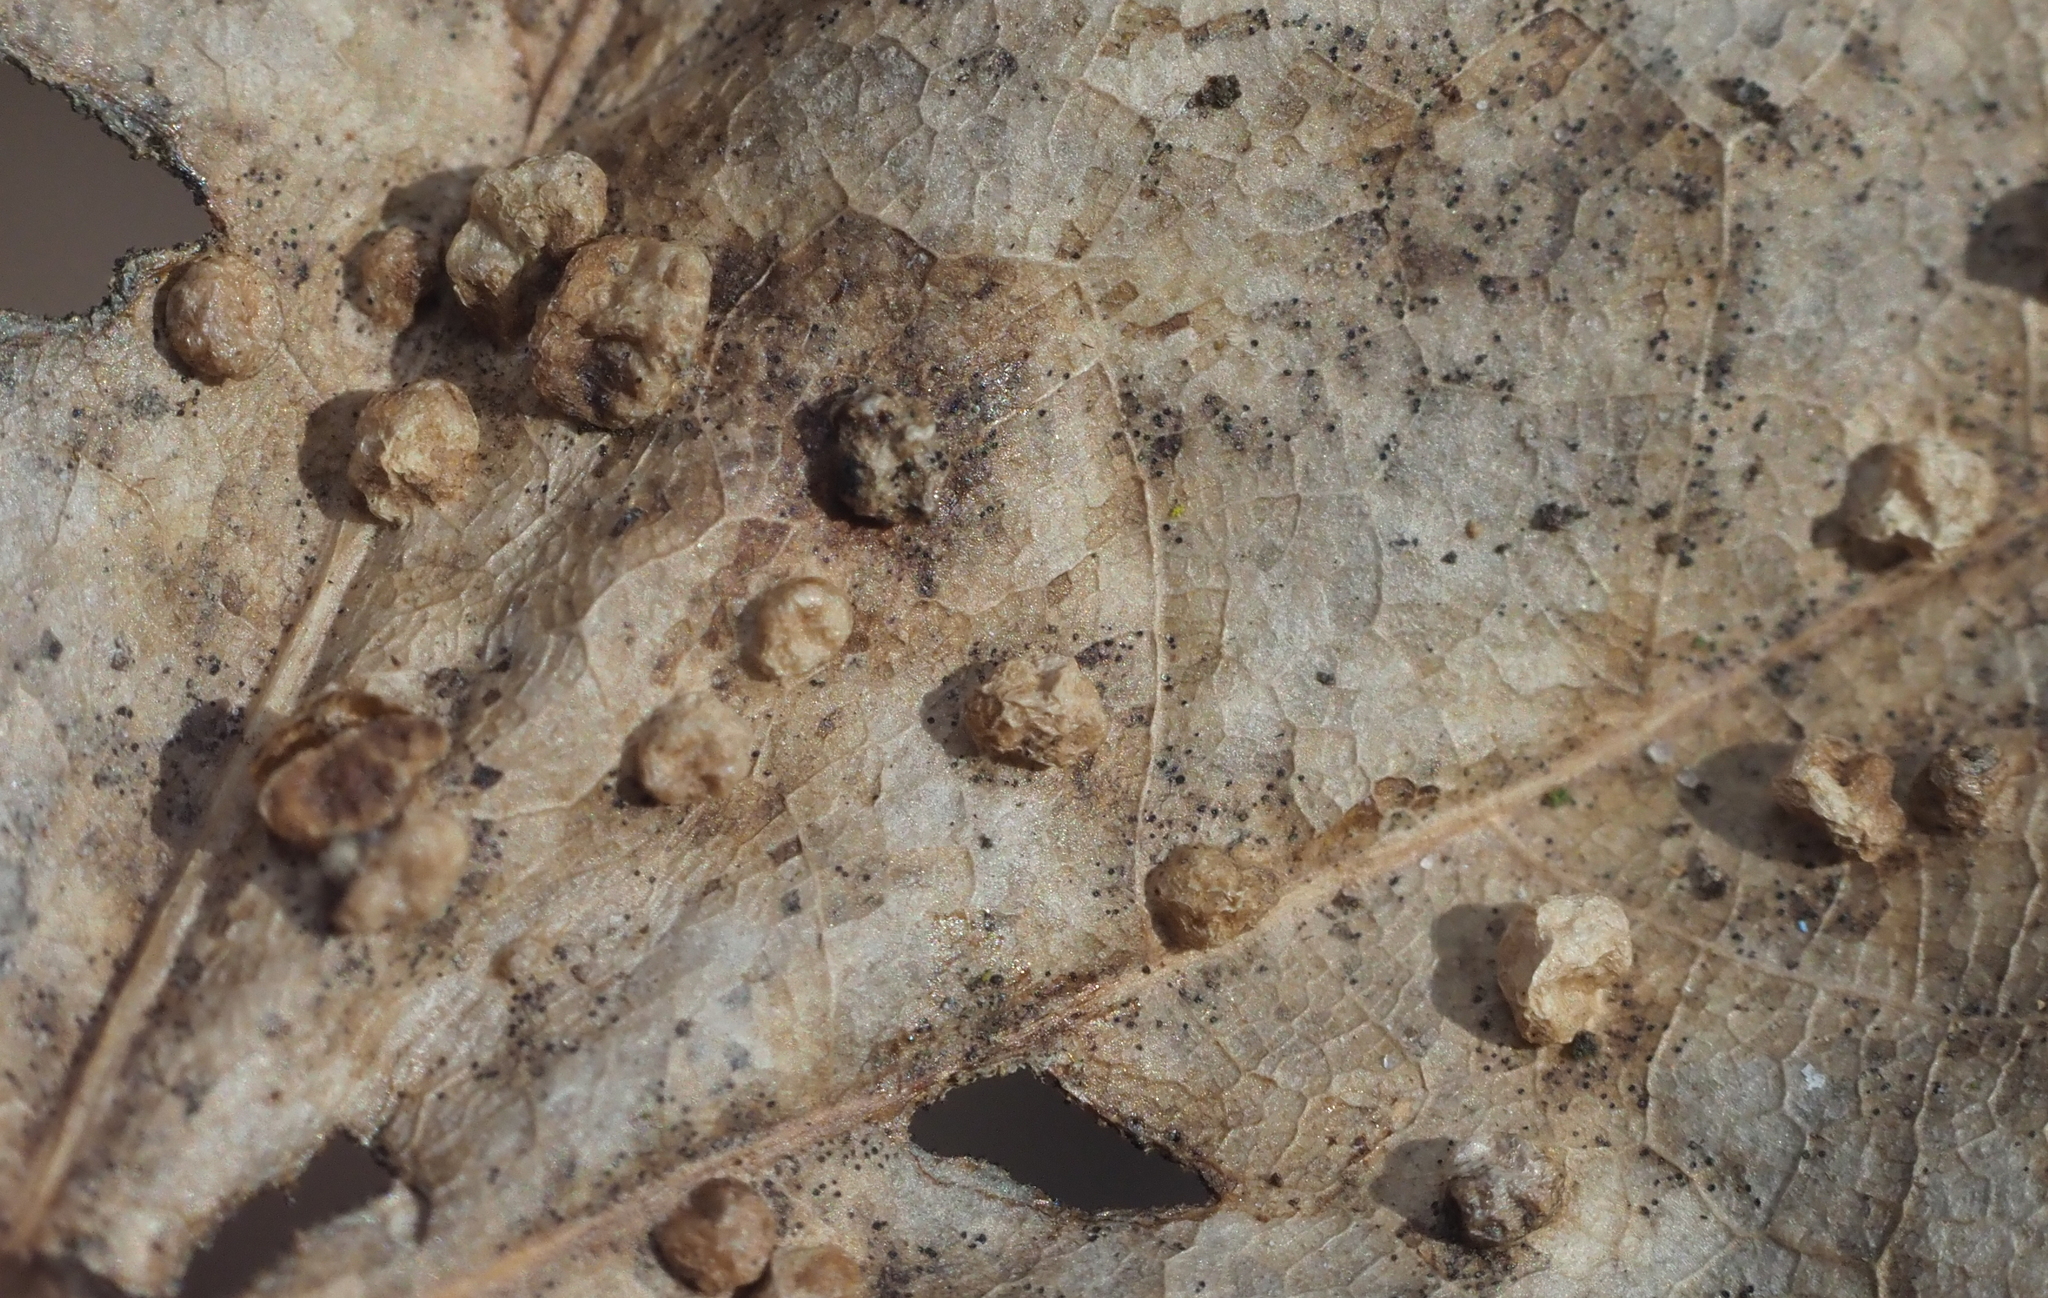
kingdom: Animalia
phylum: Arthropoda
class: Arachnida
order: Trombidiformes
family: Eriophyidae
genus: Vasates
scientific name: Vasates quadripedes
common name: Maple bladder gall mite
